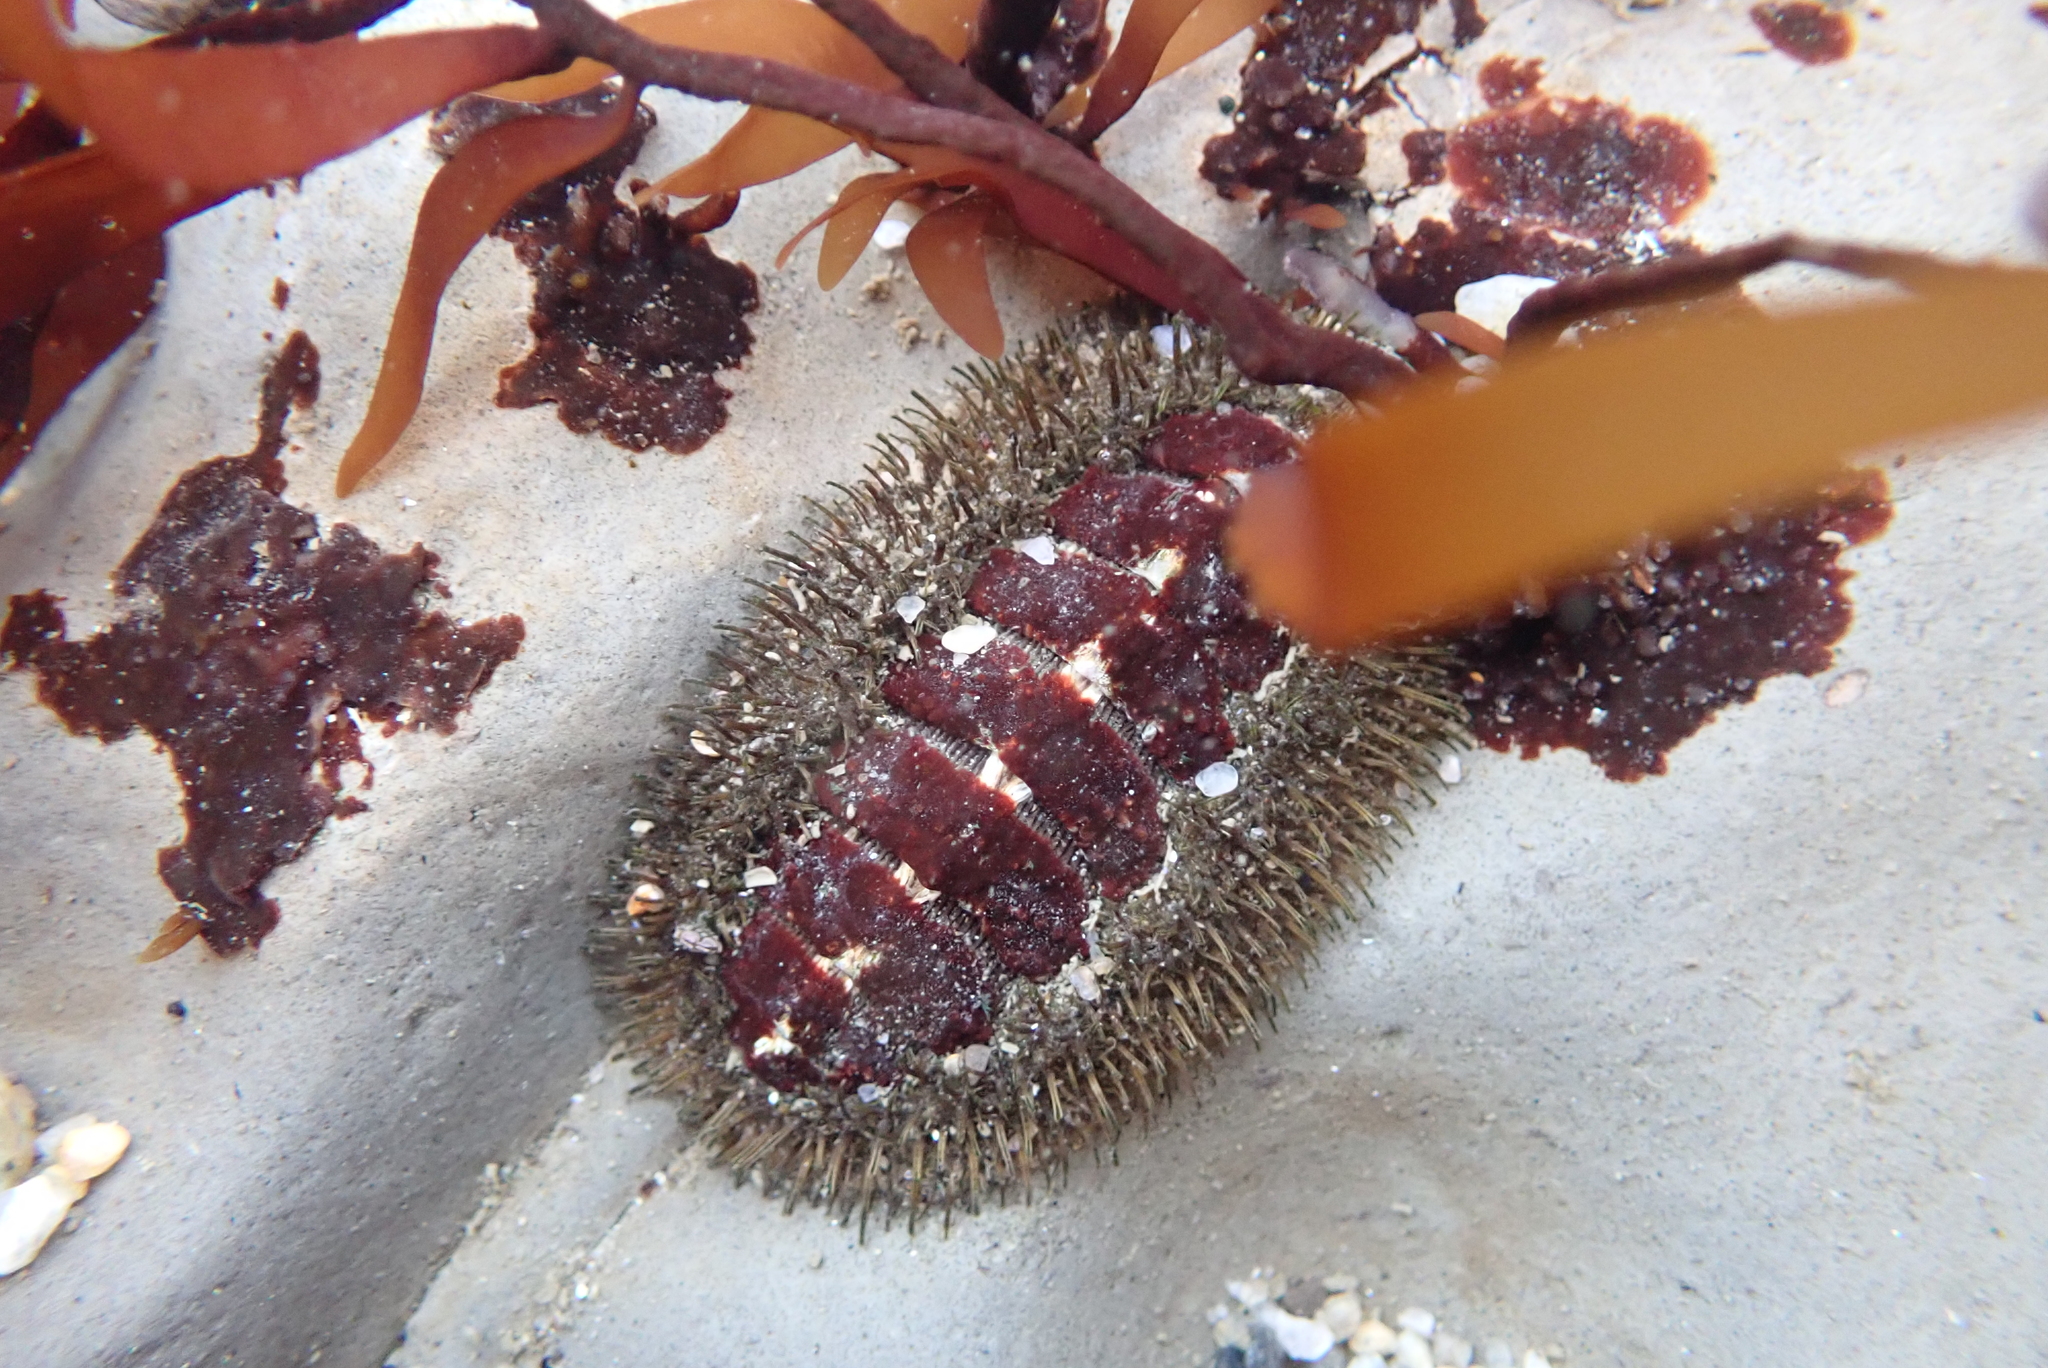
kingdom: Animalia
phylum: Mollusca
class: Polyplacophora
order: Chitonida
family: Mopaliidae
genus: Mopalia
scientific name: Mopalia muscosa
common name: Mossy chiton
